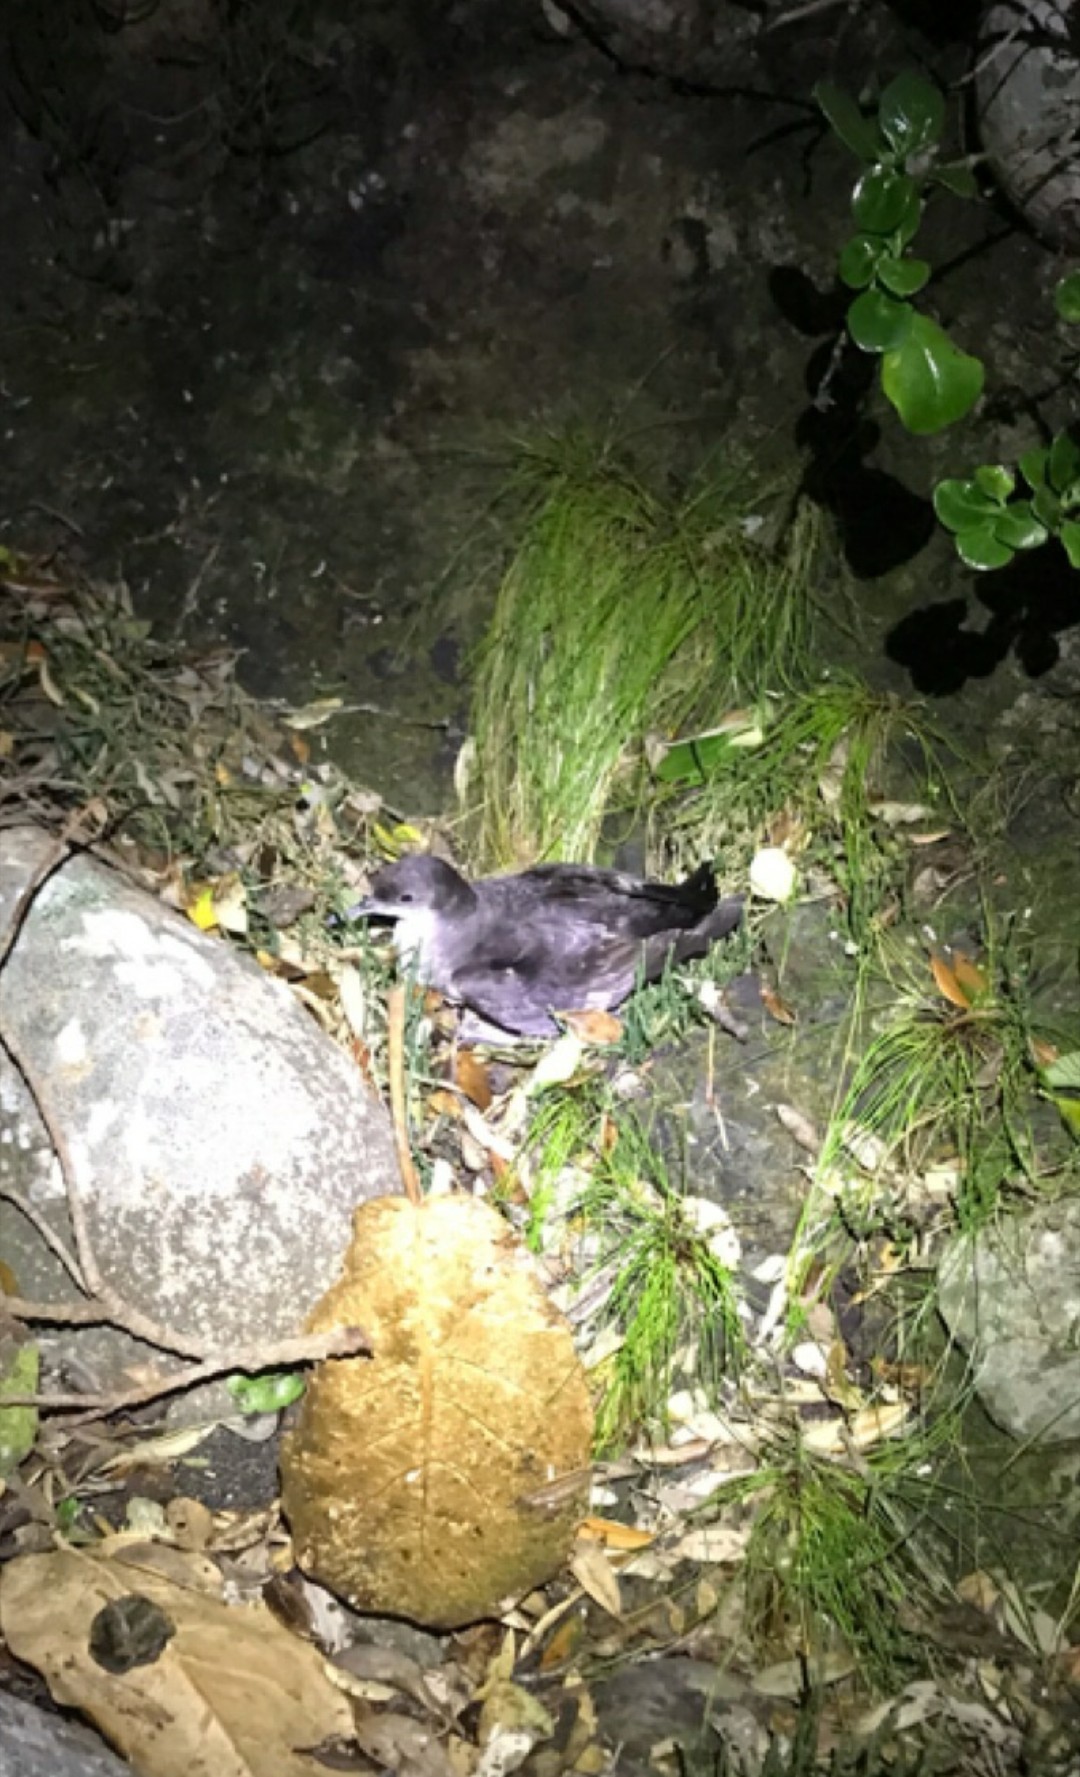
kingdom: Animalia
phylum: Chordata
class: Aves
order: Procellariiformes
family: Procellariidae
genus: Puffinus
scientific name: Puffinus gavia
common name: Fluttering shearwater
